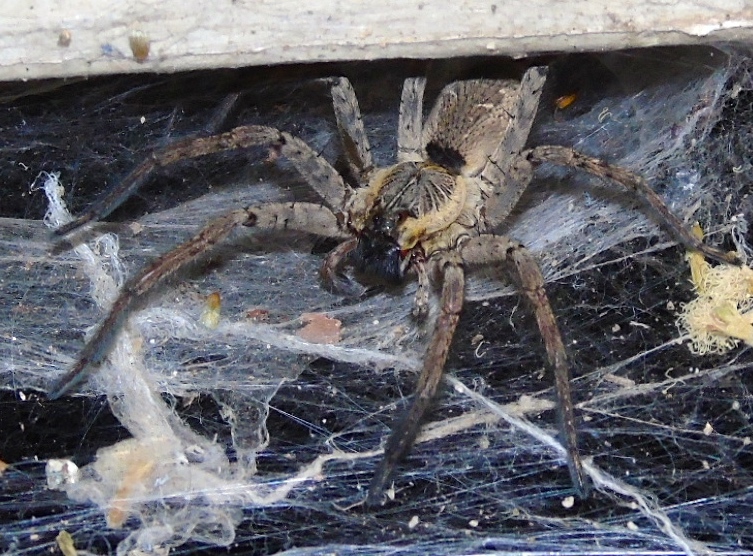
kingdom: Animalia
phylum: Arthropoda
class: Arachnida
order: Araneae
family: Lycosidae
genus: Sosippus
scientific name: Sosippus
